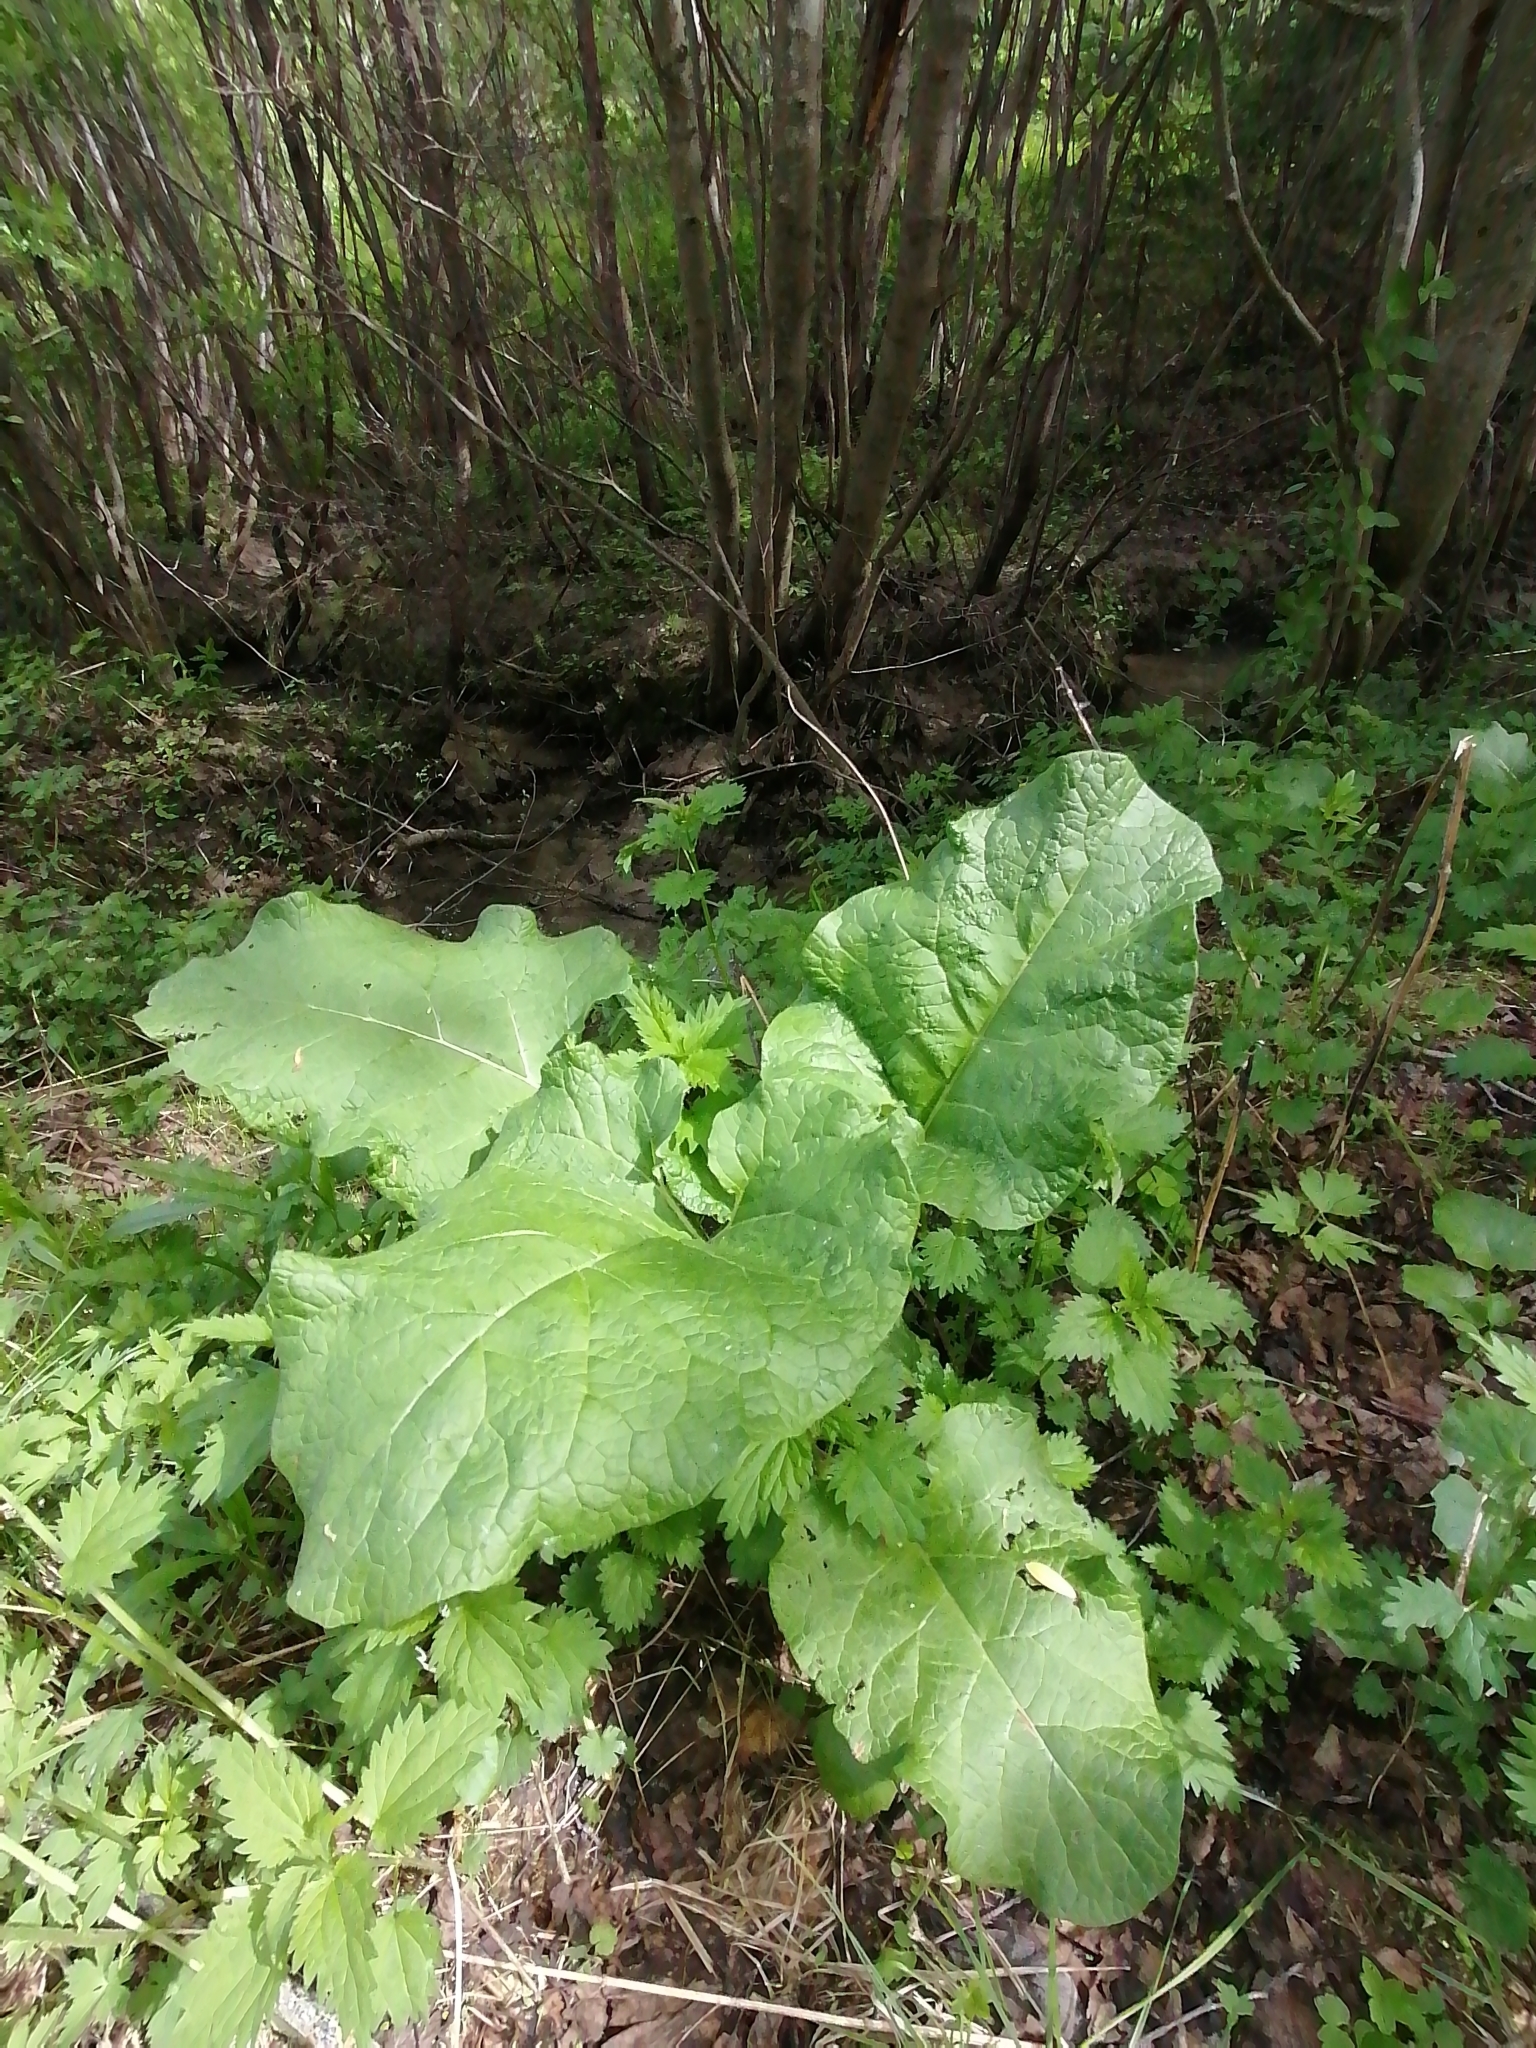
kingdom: Plantae
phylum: Tracheophyta
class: Magnoliopsida
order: Asterales
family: Asteraceae
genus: Arctium
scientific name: Arctium tomentosum
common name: Woolly burdock
